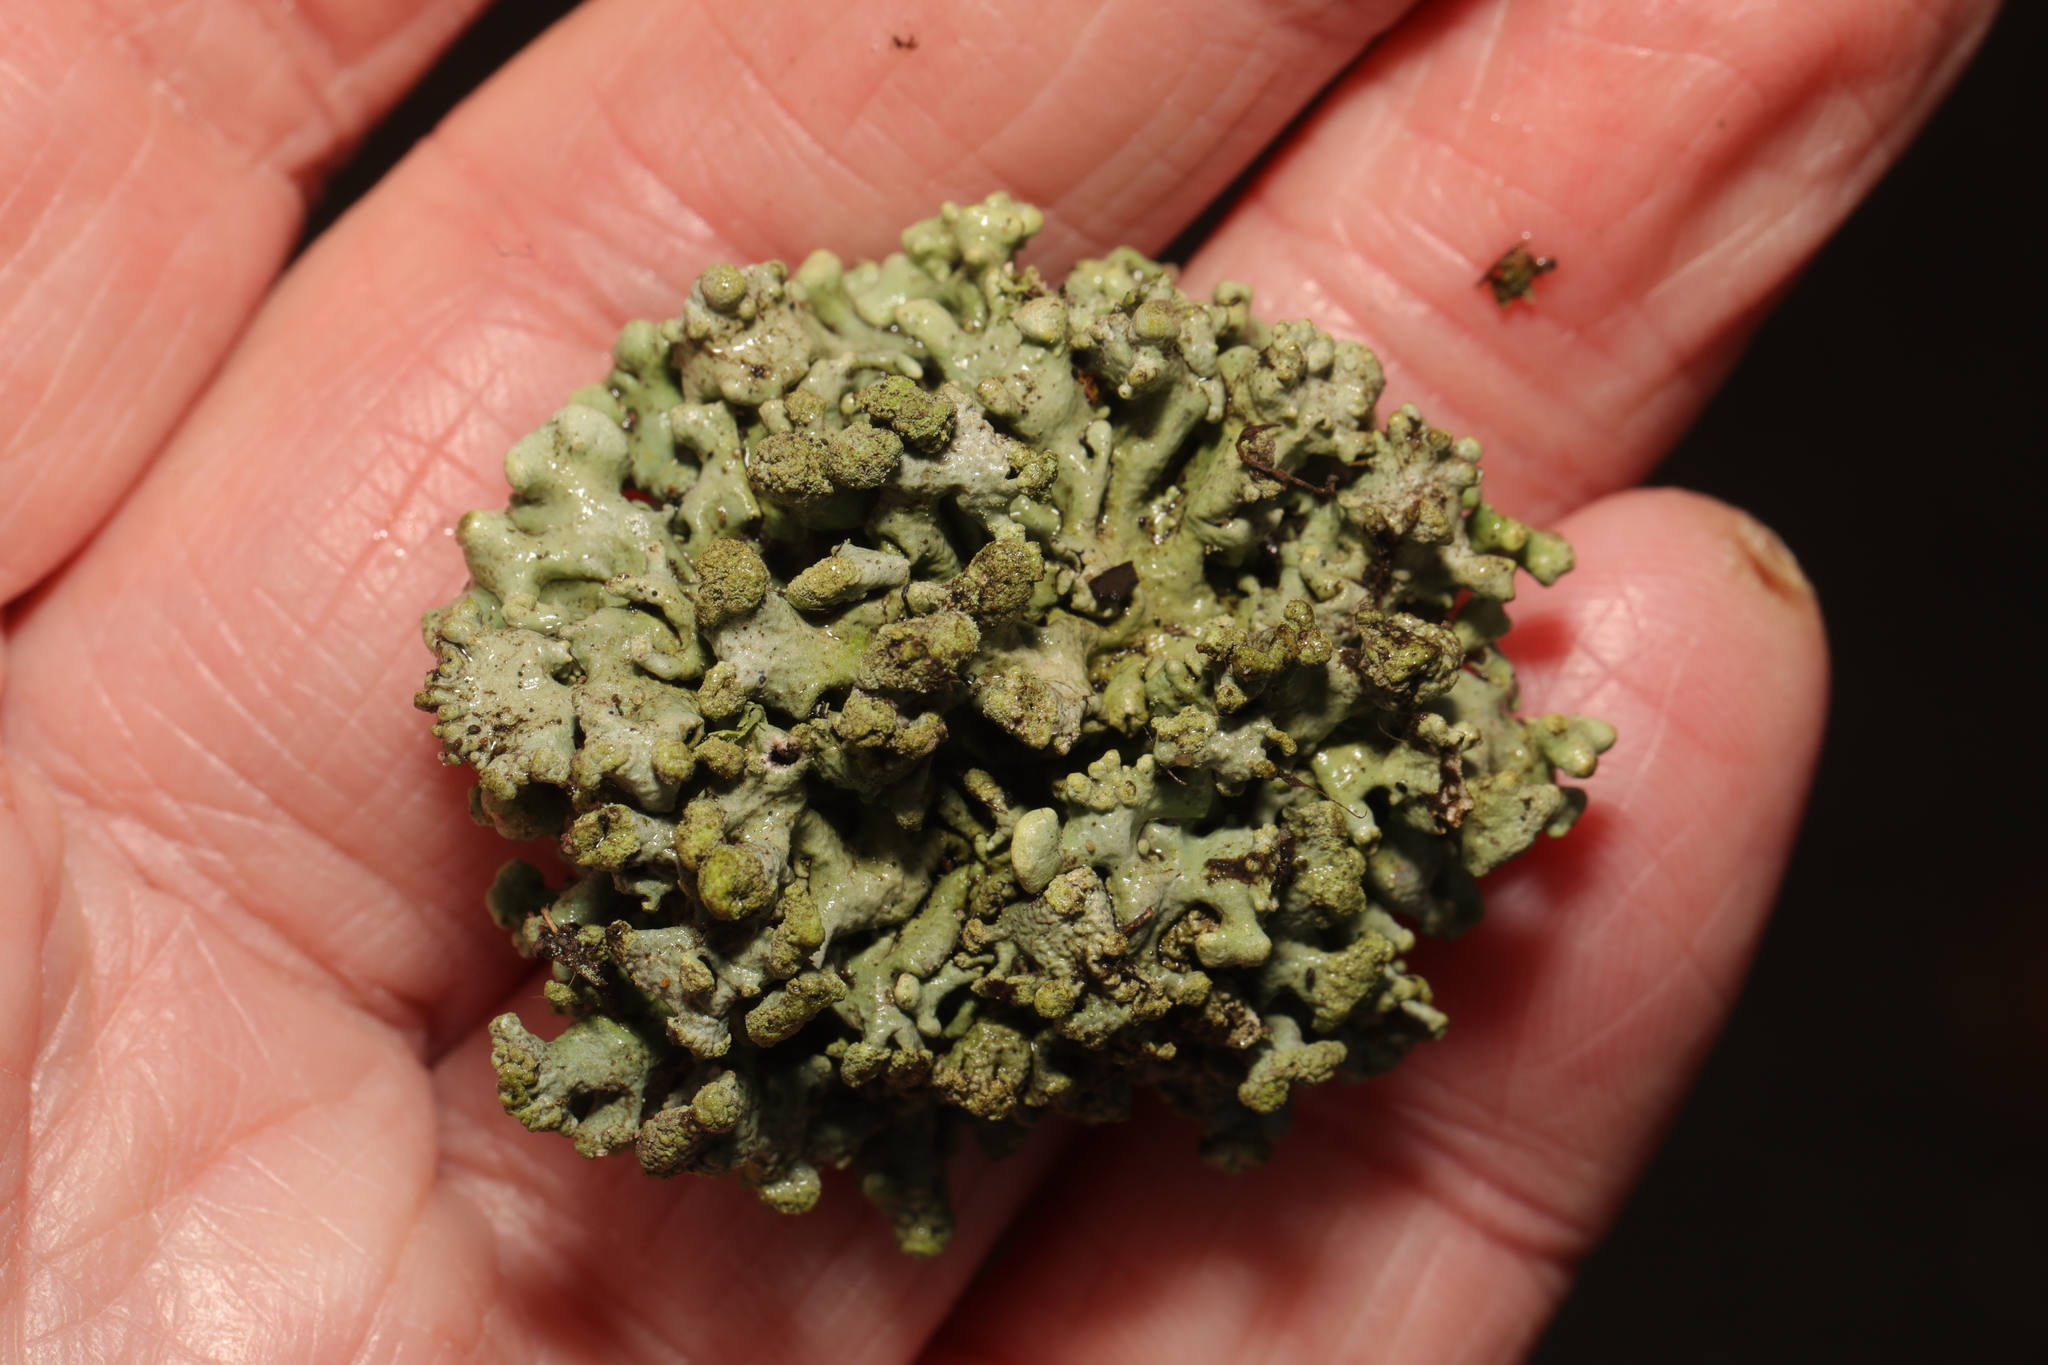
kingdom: Fungi
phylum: Ascomycota
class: Lecanoromycetes
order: Lecanorales
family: Parmeliaceae
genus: Hypogymnia
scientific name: Hypogymnia tubulosa
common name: Powder-headed tube lichen
